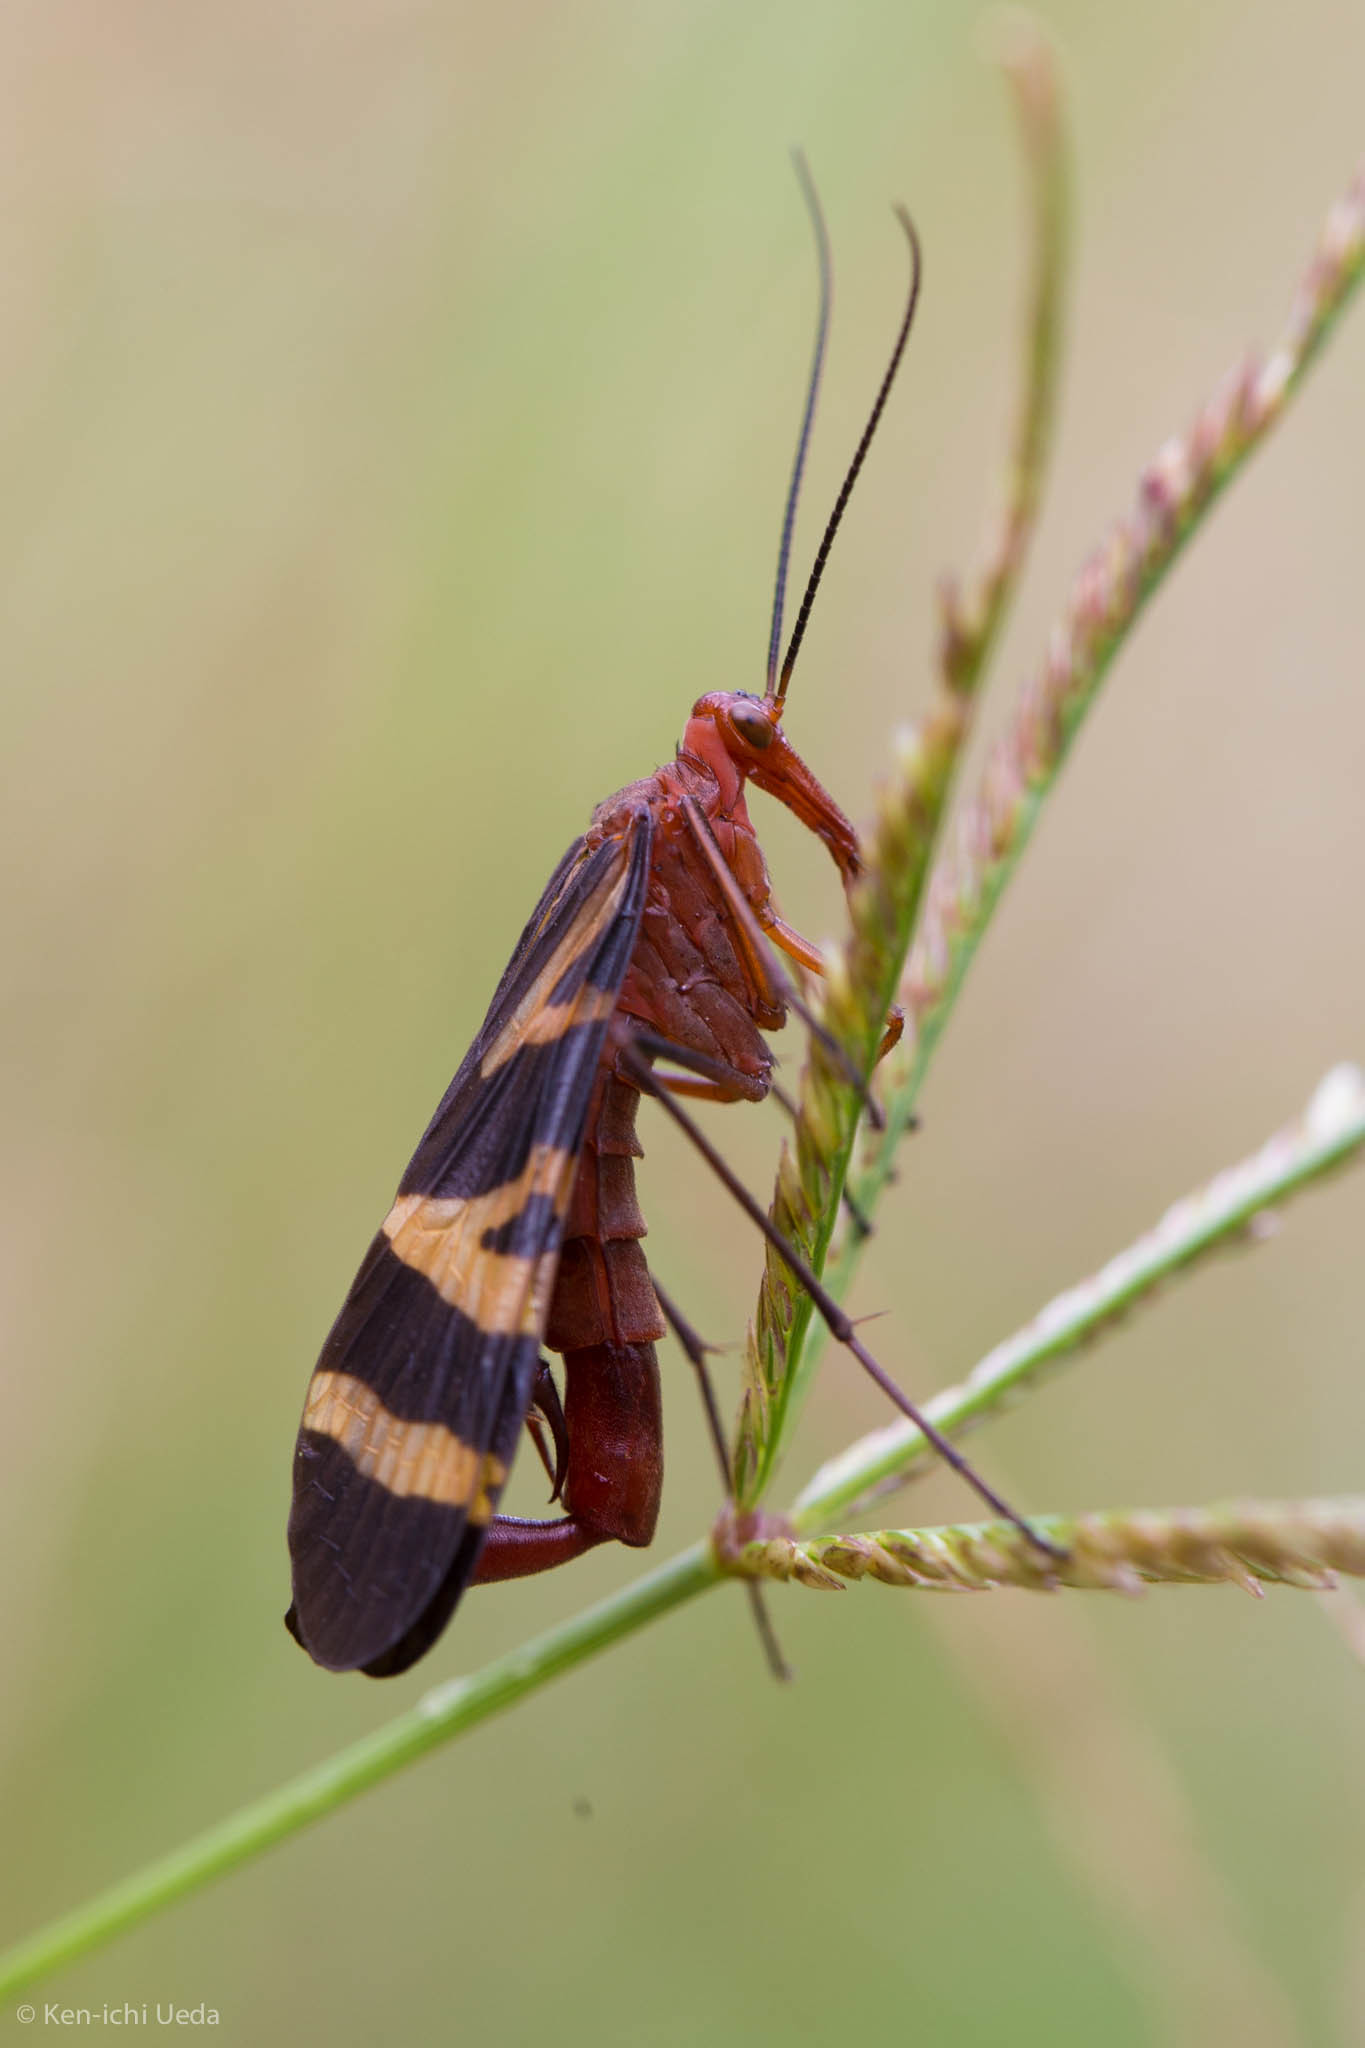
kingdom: Animalia
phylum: Arthropoda
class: Insecta
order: Mecoptera
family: Panorpidae
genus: Panorpa
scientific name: Panorpa nuptialis
